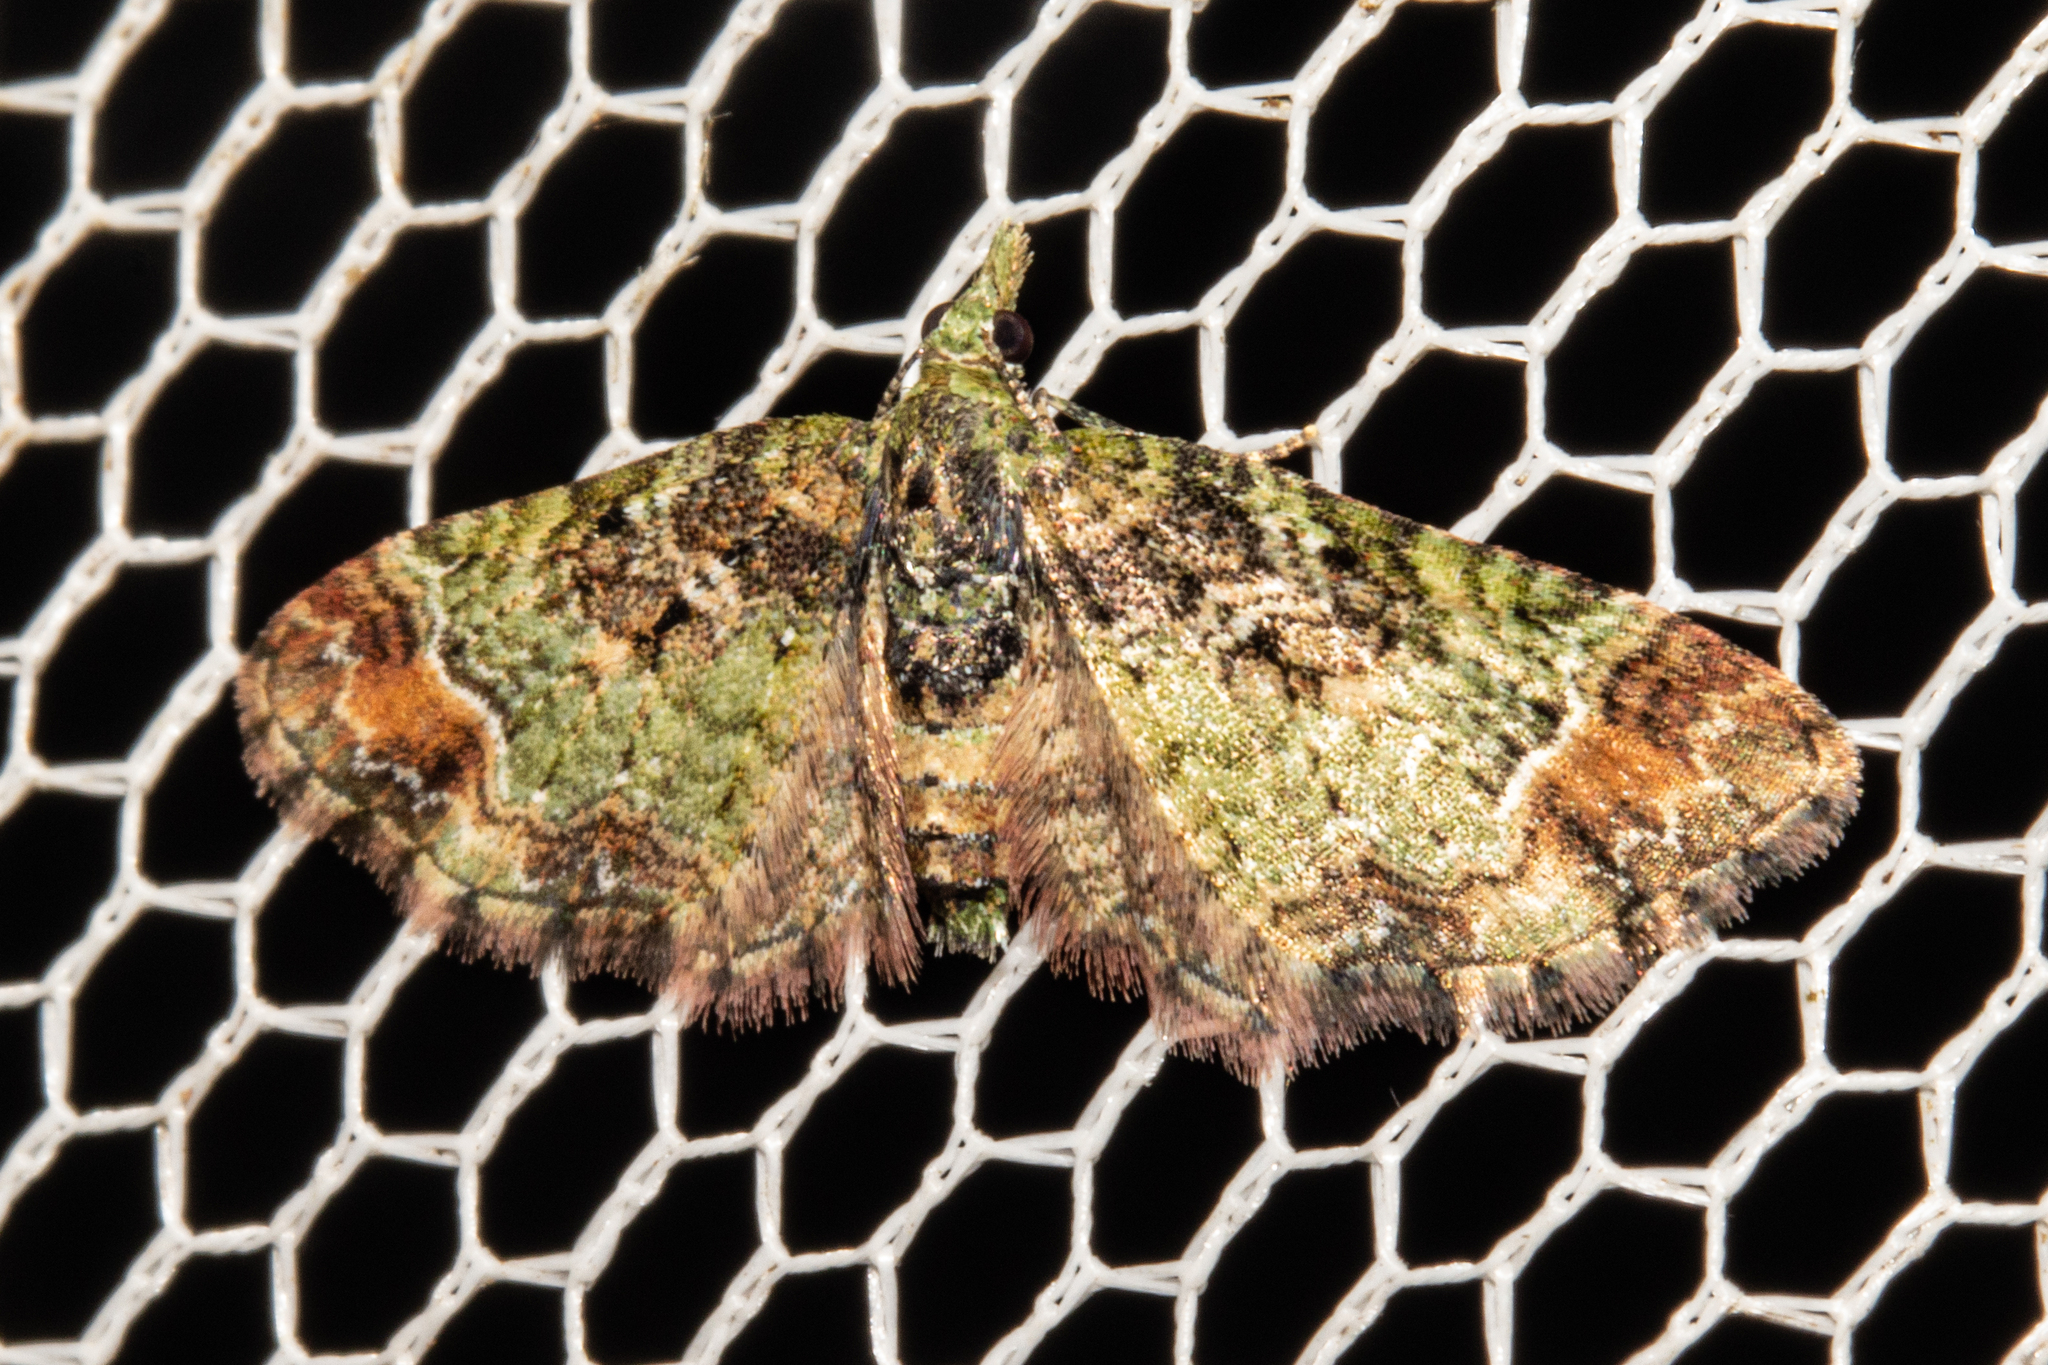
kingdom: Animalia
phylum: Arthropoda
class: Insecta
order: Lepidoptera
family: Geometridae
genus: Pasiphila
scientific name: Pasiphila sandycias
